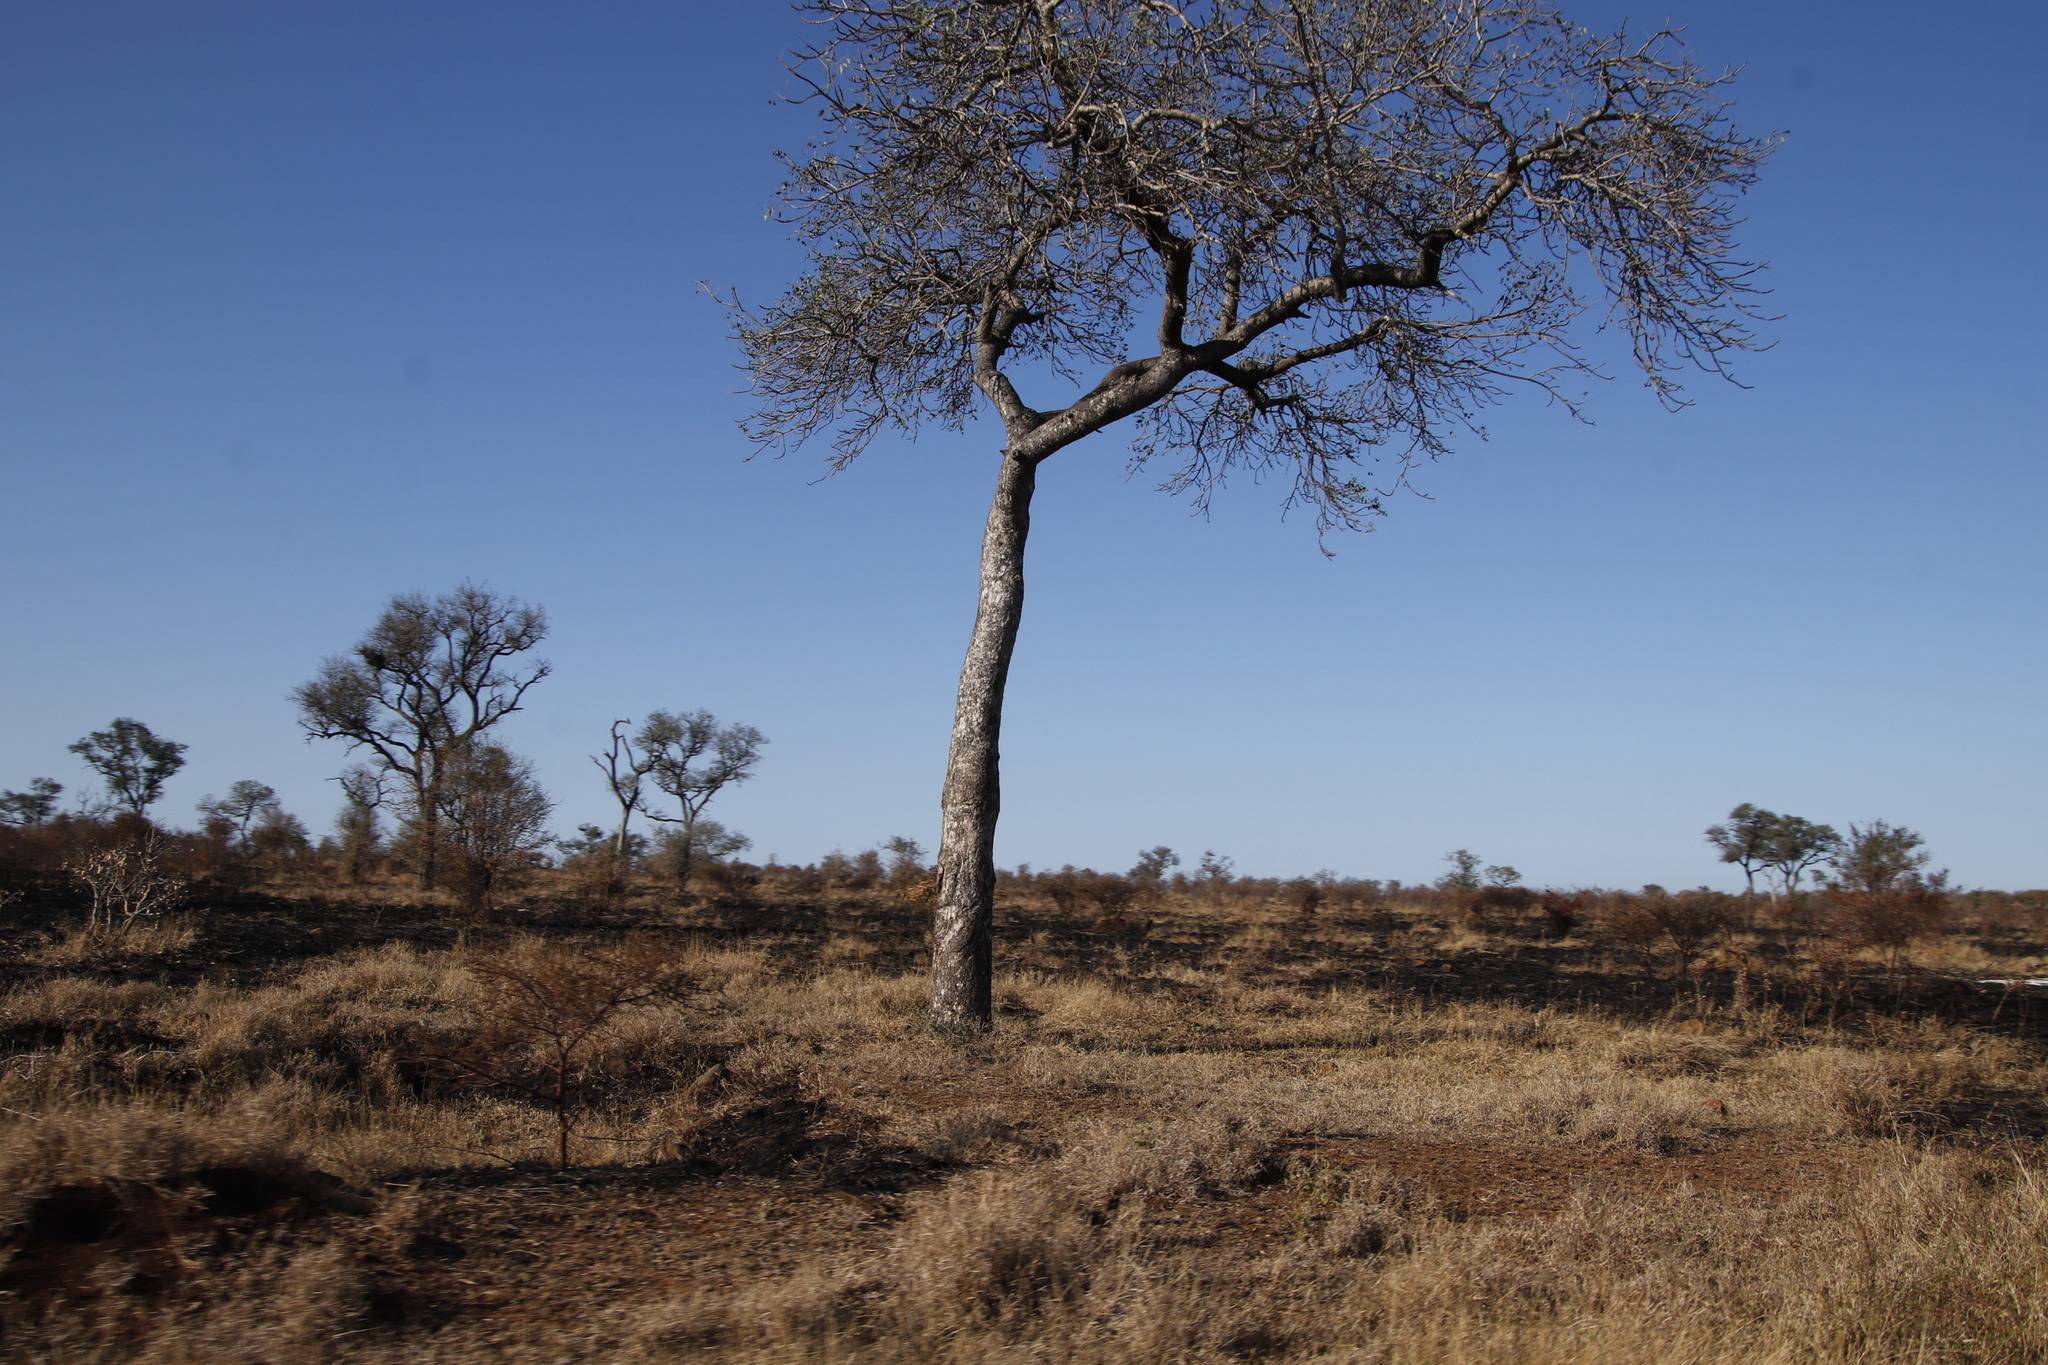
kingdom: Plantae
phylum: Tracheophyta
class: Magnoliopsida
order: Sapindales
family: Anacardiaceae
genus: Sclerocarya
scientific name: Sclerocarya birrea
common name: Marula
